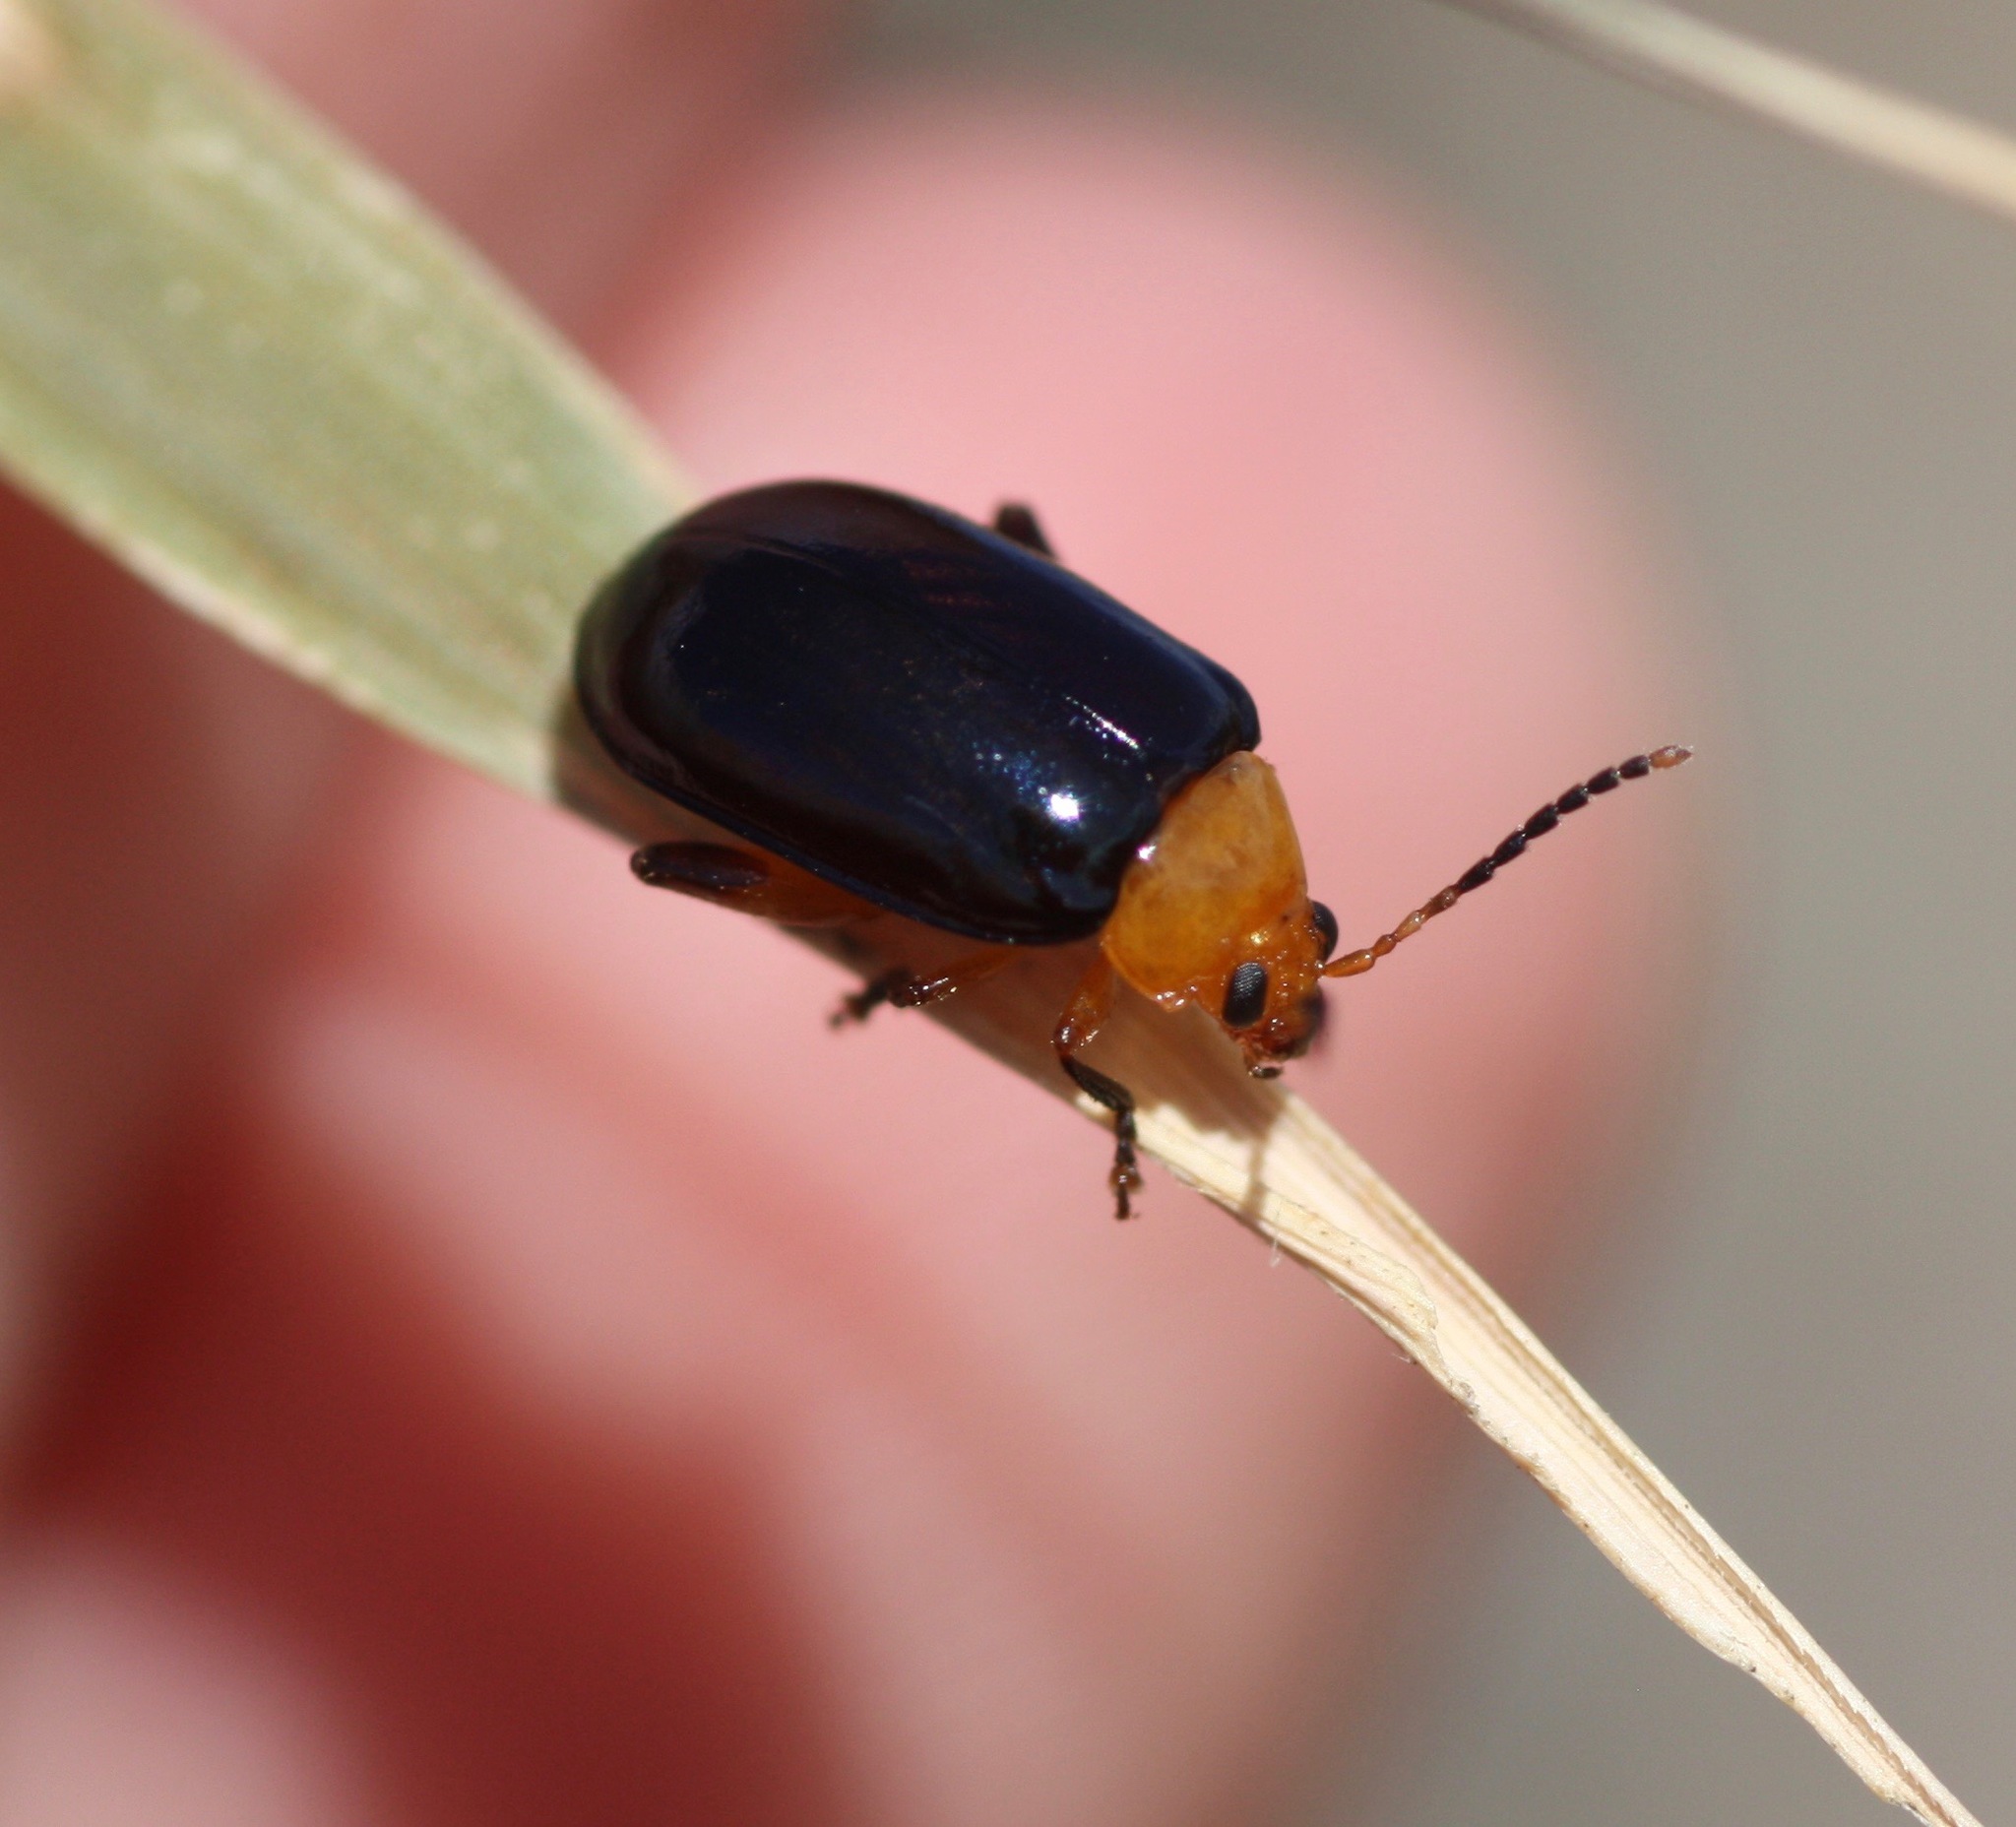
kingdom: Animalia
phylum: Arthropoda
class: Insecta
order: Coleoptera
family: Chrysomelidae
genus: Disonycha
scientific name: Disonycha varicornis
